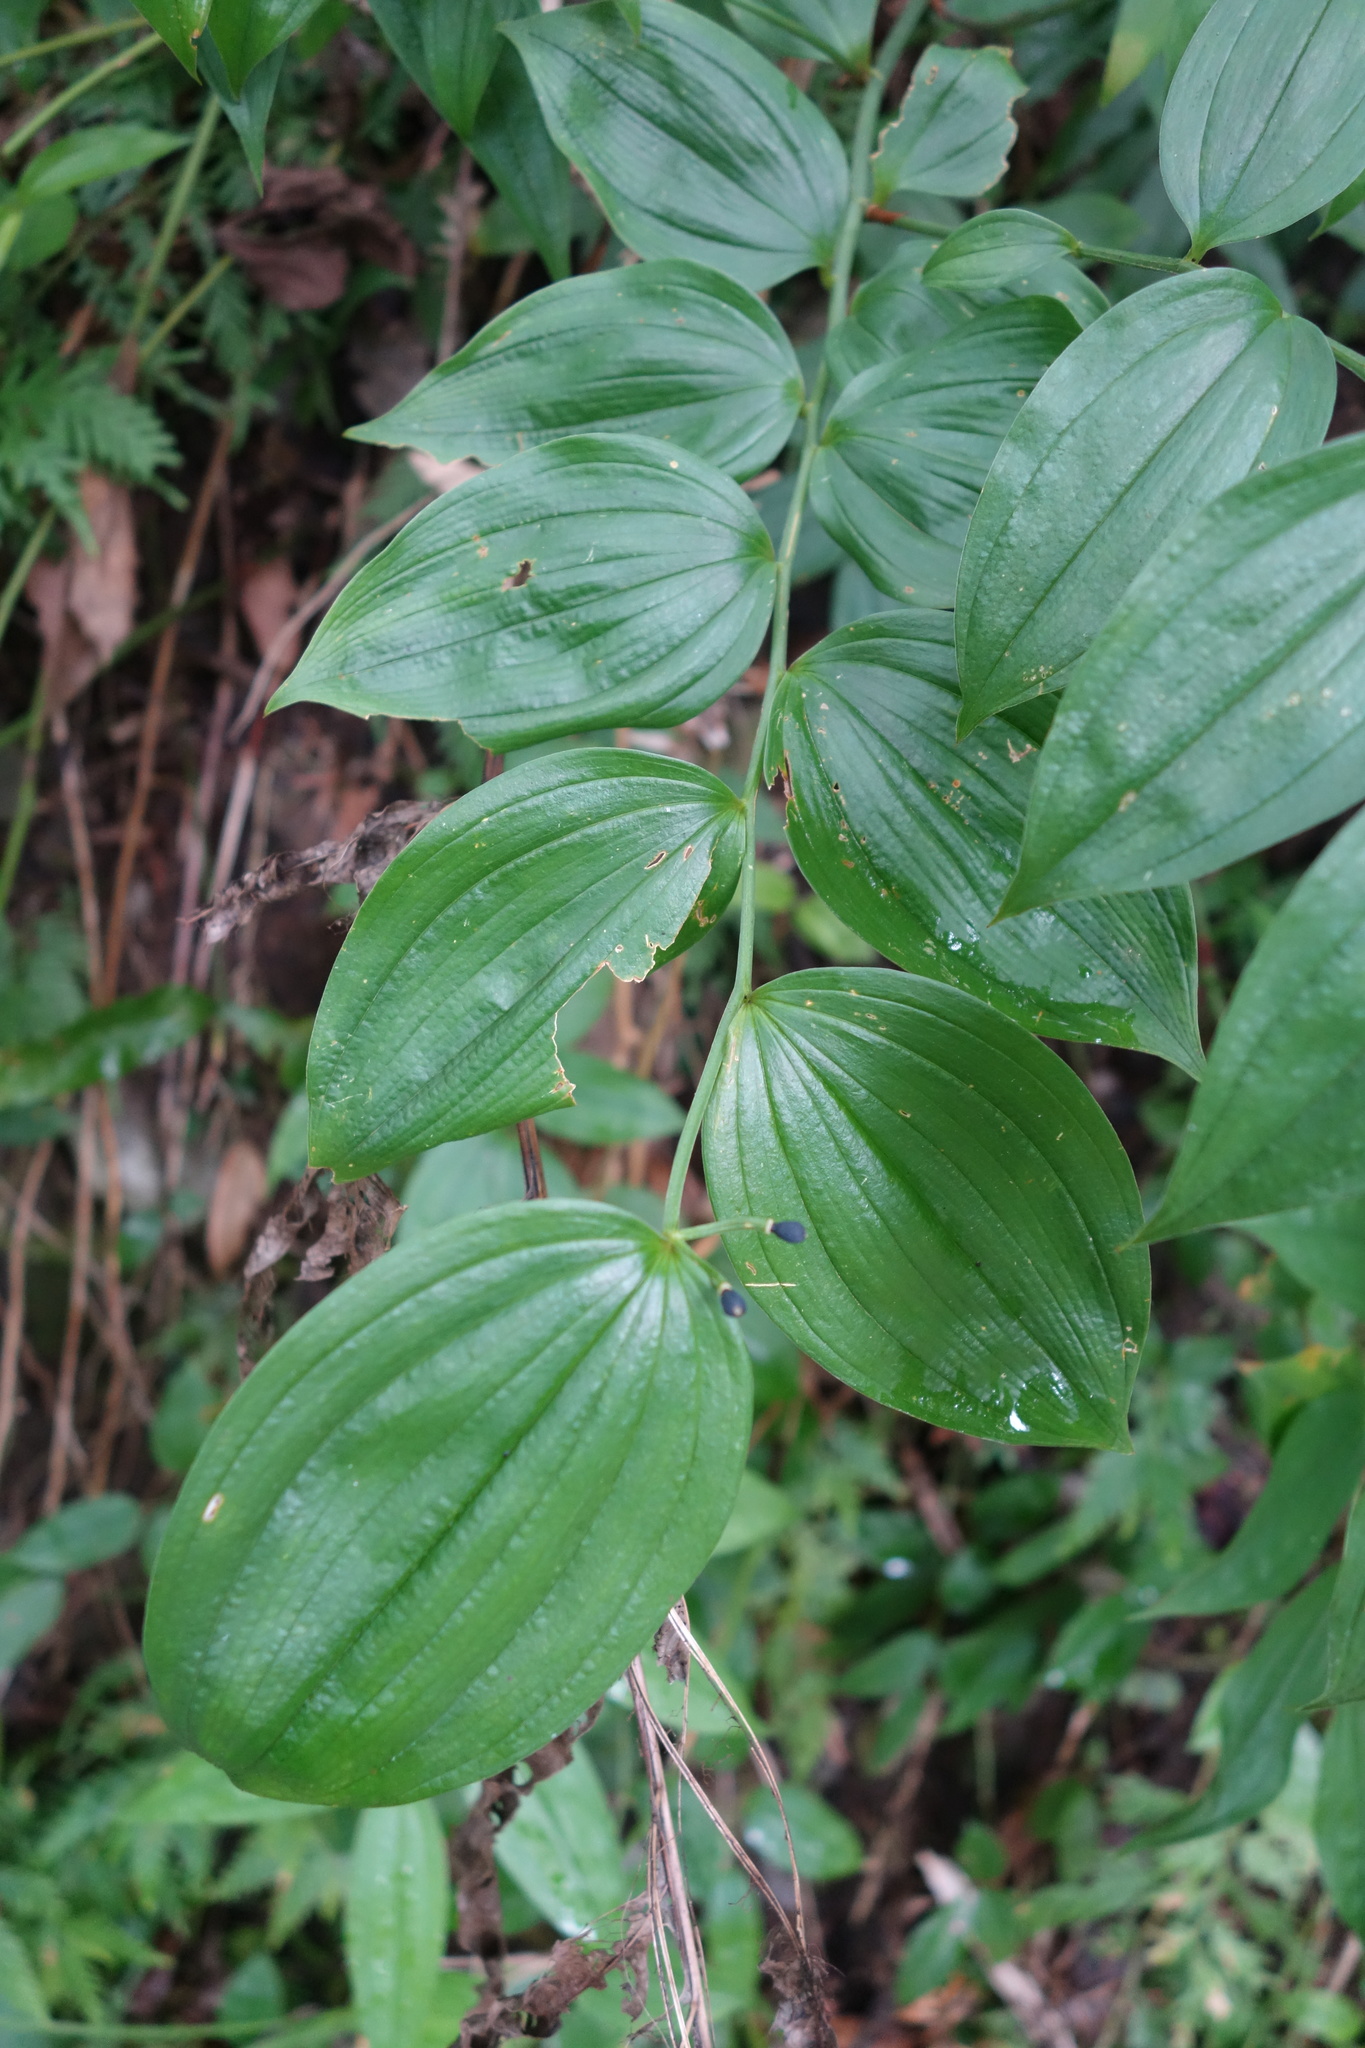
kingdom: Plantae
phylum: Tracheophyta
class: Liliopsida
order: Liliales
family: Colchicaceae
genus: Disporum
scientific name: Disporum kawakamii
